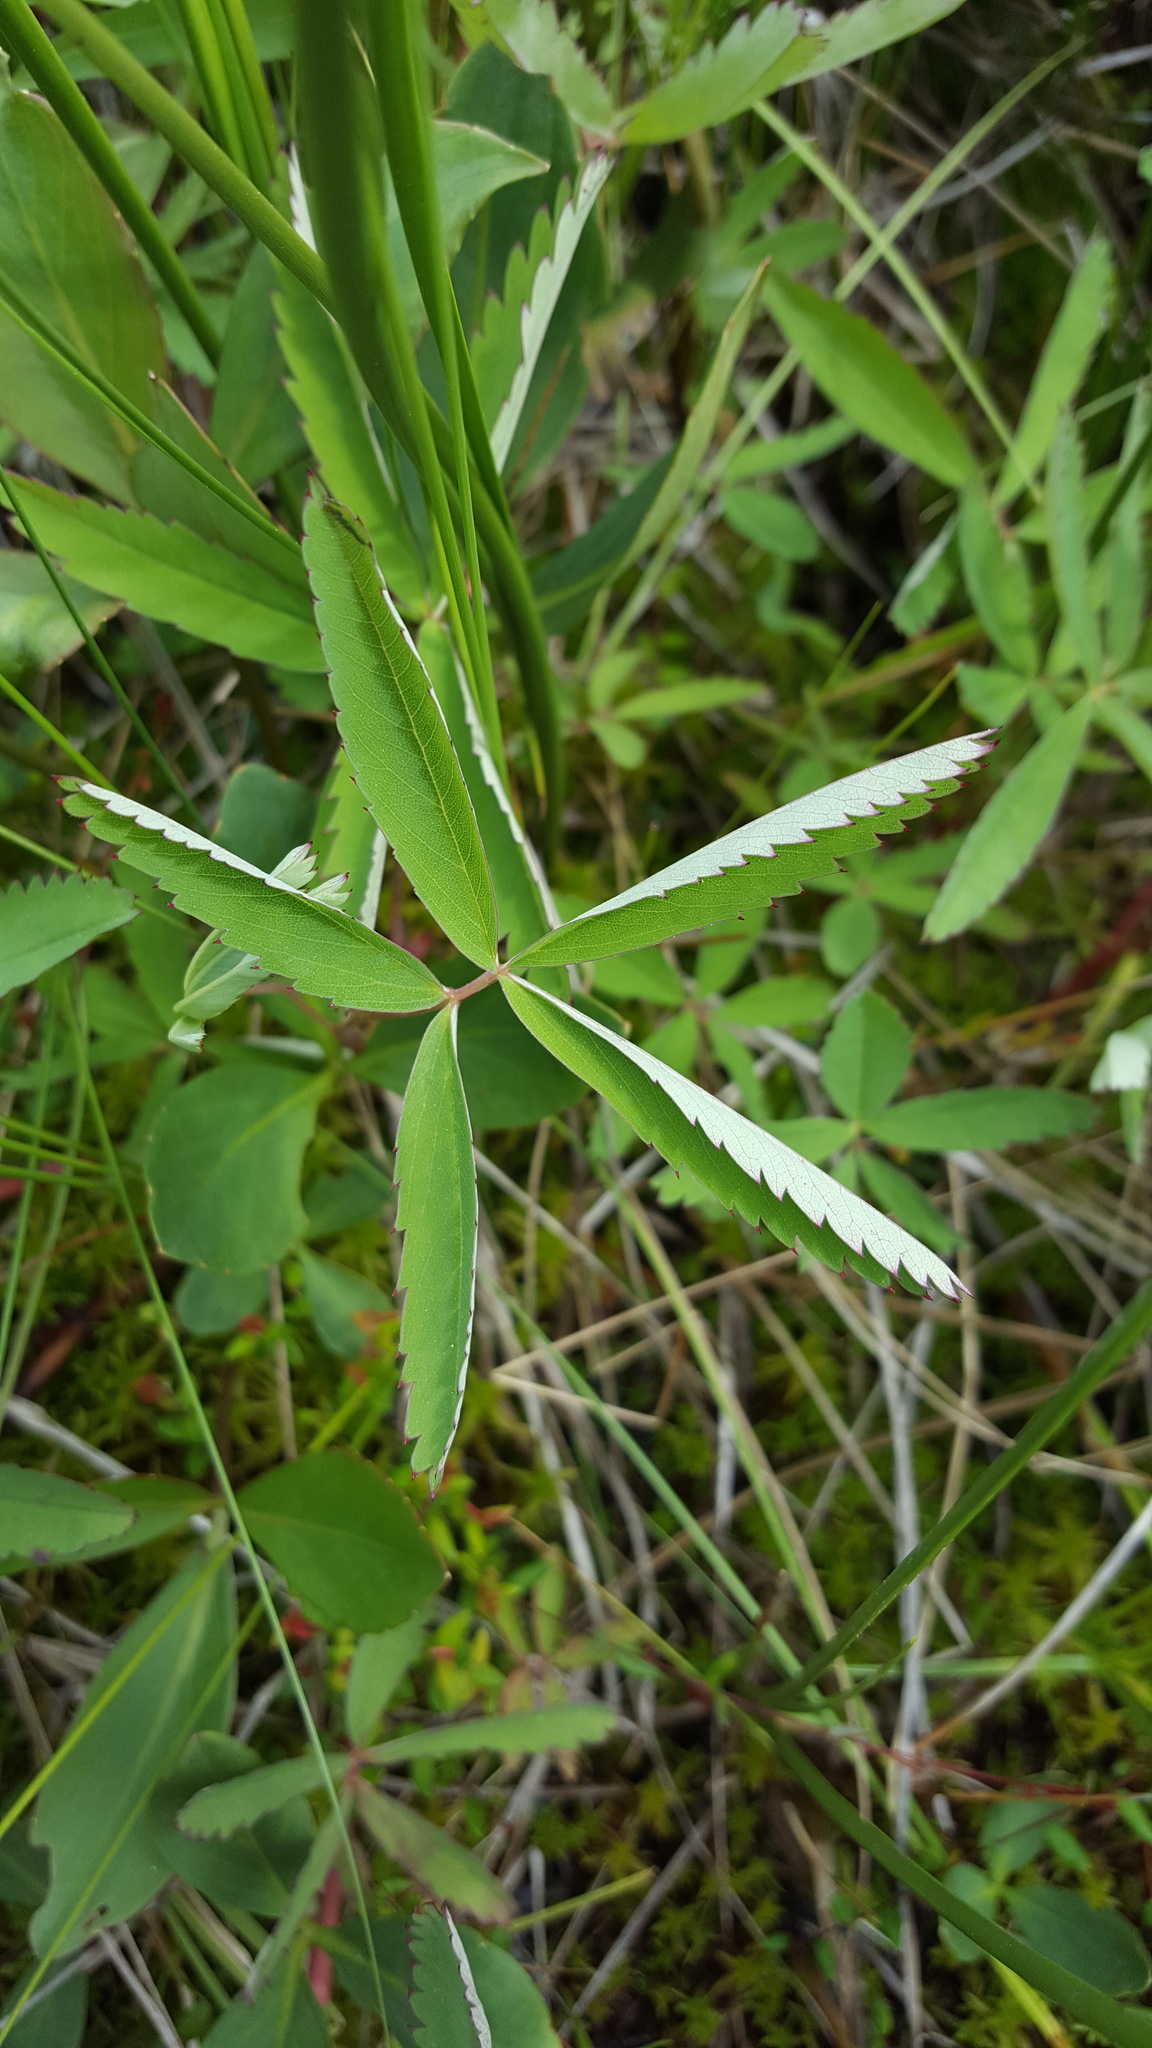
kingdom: Plantae
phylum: Tracheophyta
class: Magnoliopsida
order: Rosales
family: Rosaceae
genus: Comarum
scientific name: Comarum palustre
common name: Marsh cinquefoil
